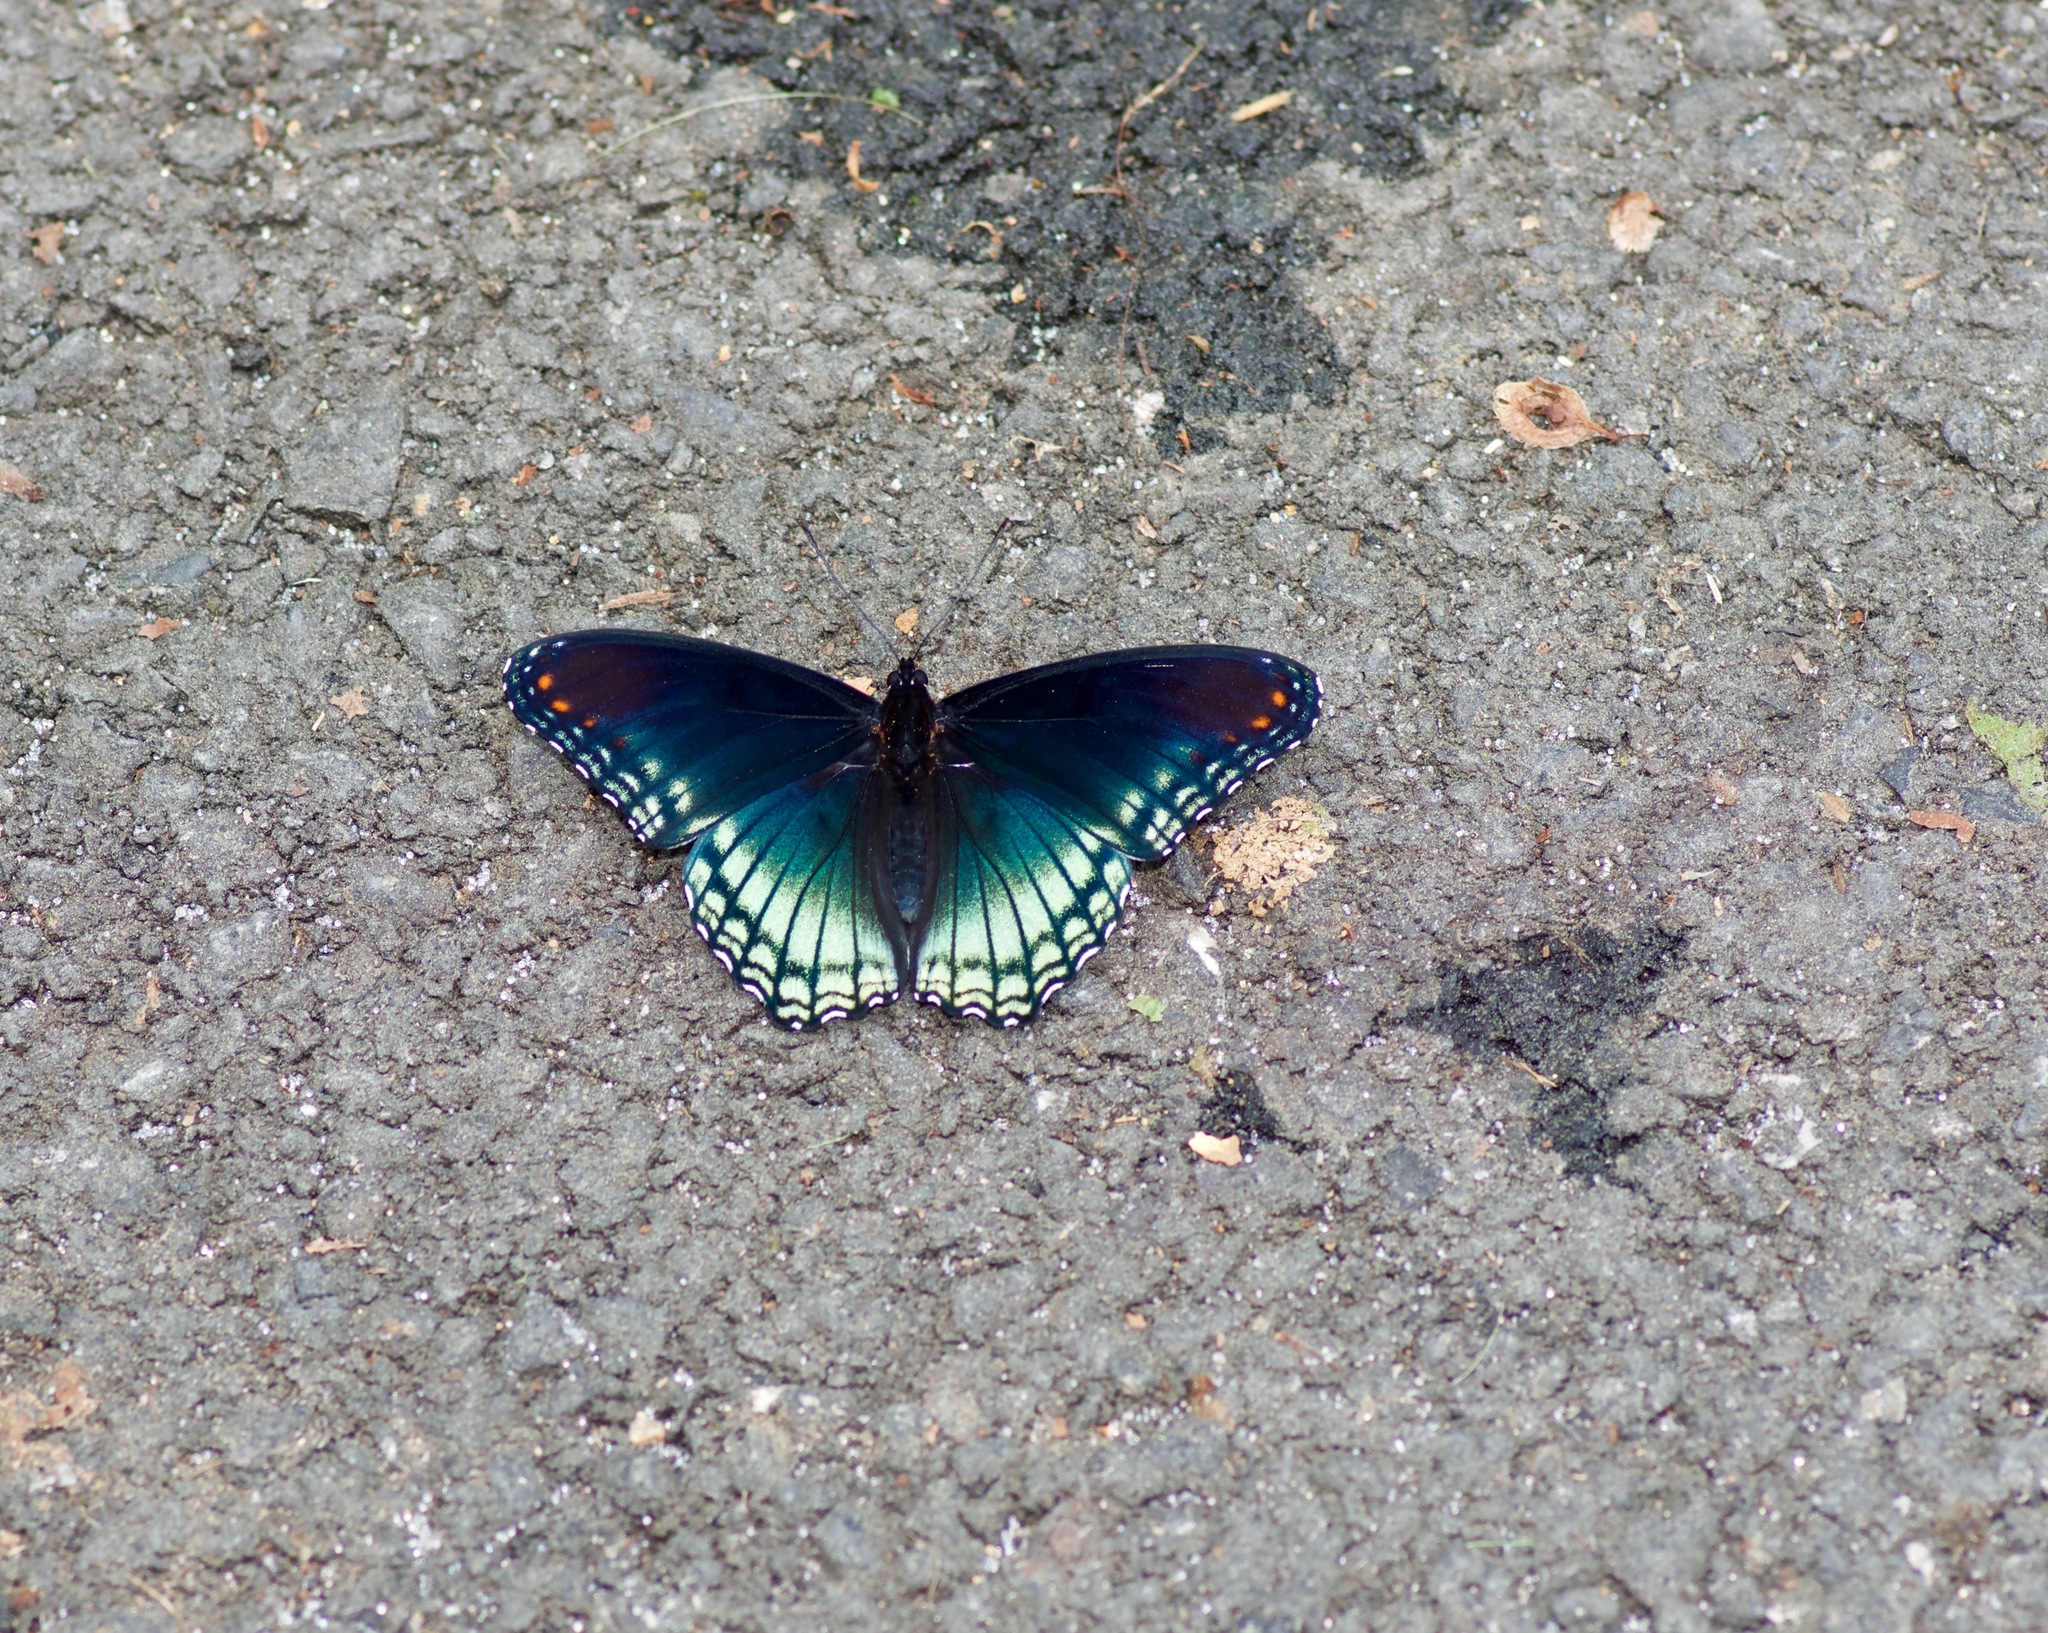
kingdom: Animalia
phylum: Arthropoda
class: Insecta
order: Lepidoptera
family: Nymphalidae
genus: Limenitis
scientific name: Limenitis astyanax
